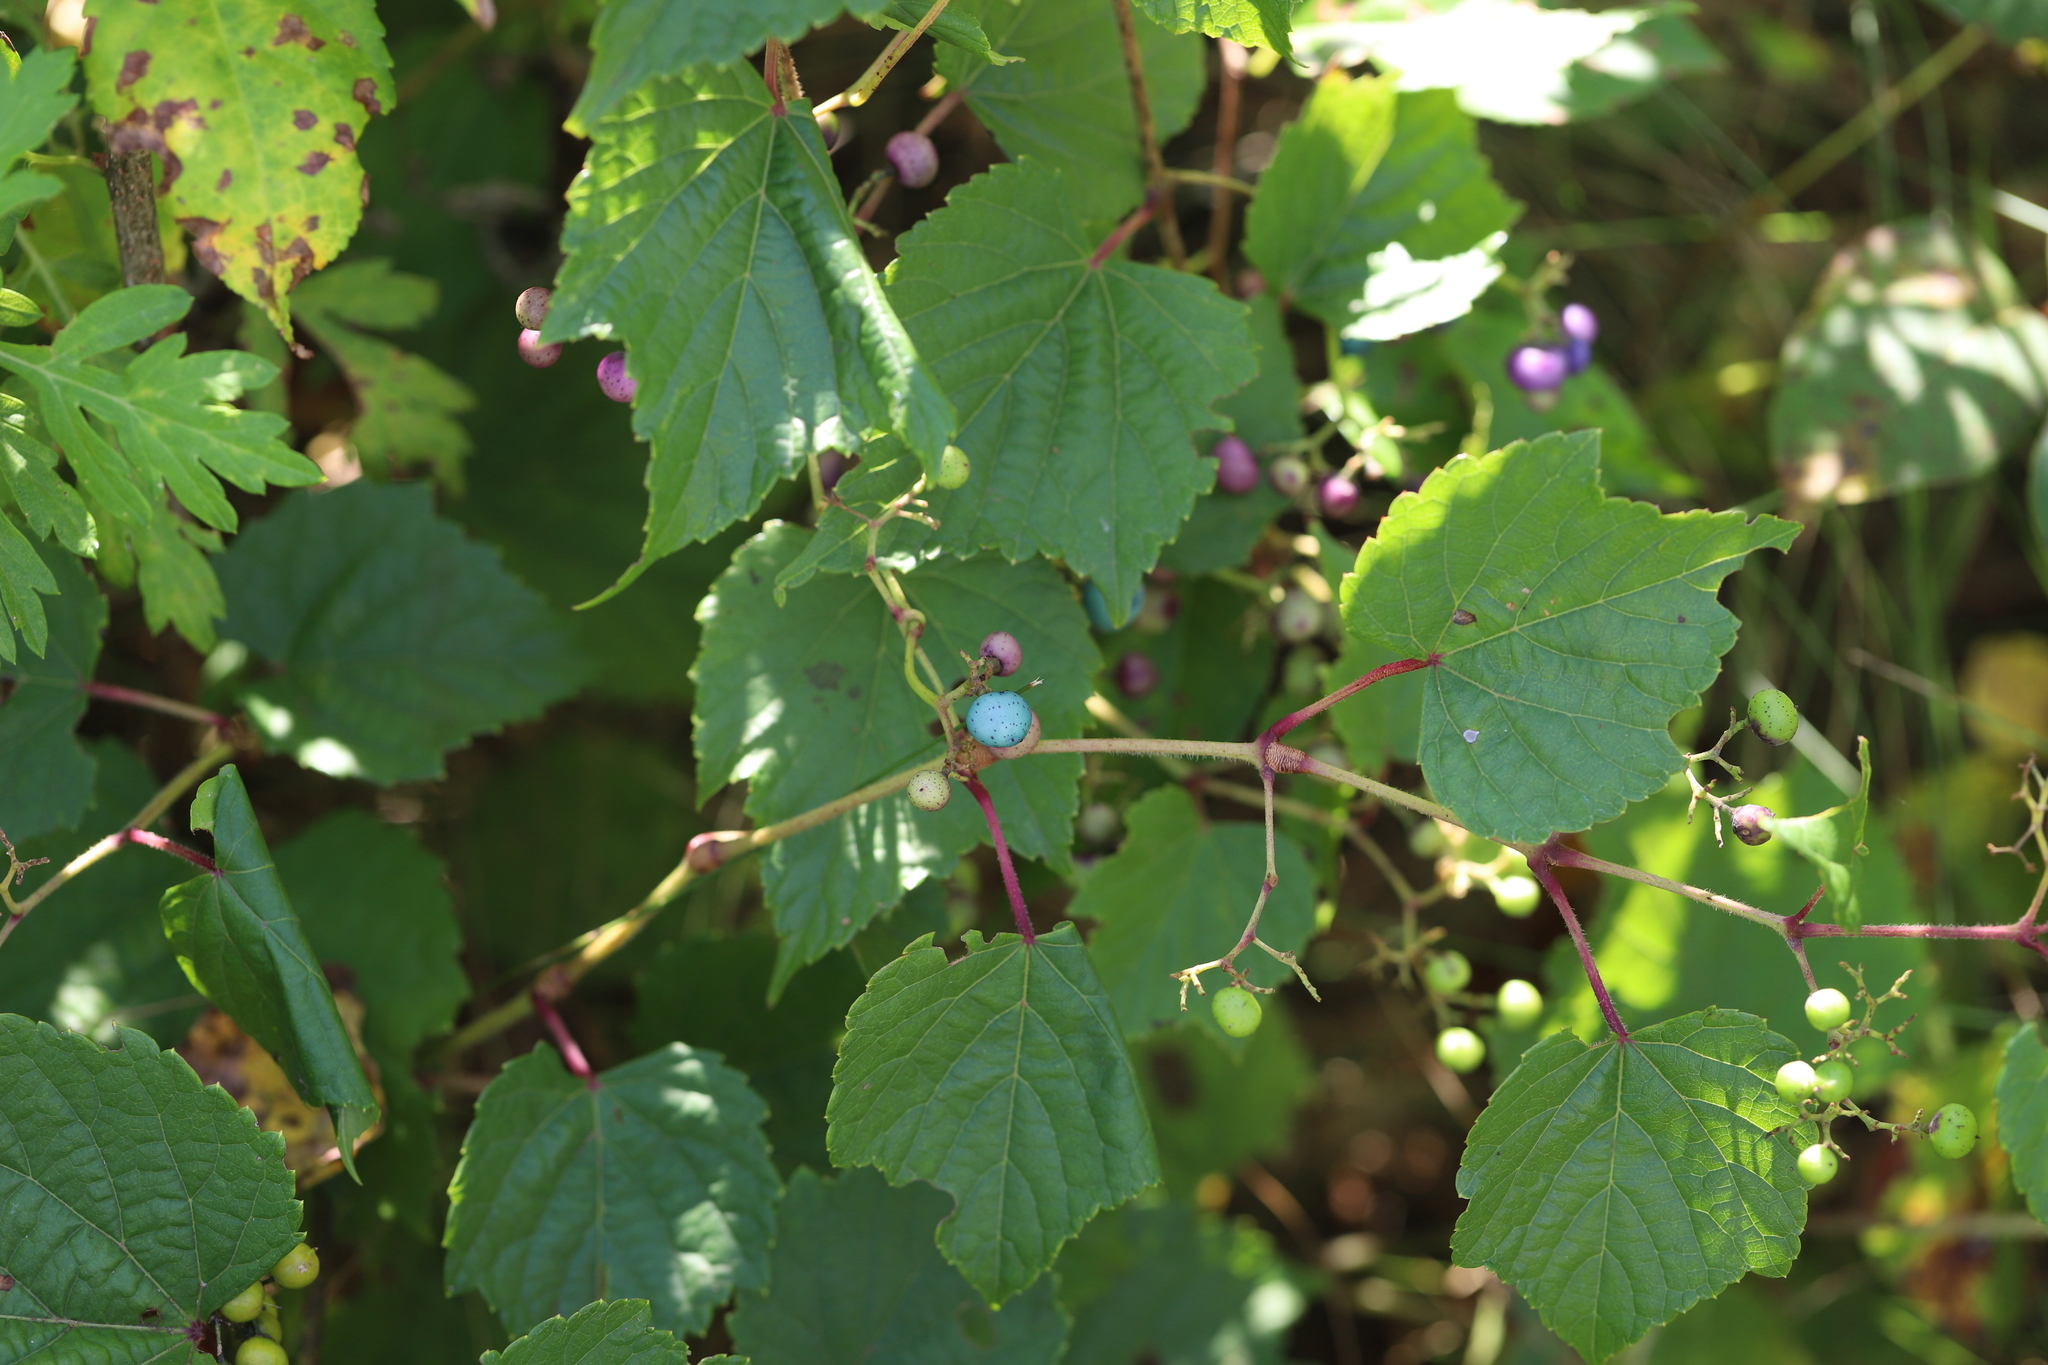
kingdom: Plantae
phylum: Tracheophyta
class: Magnoliopsida
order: Vitales
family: Vitaceae
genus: Ampelopsis
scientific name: Ampelopsis glandulosa
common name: Amur peppervine
